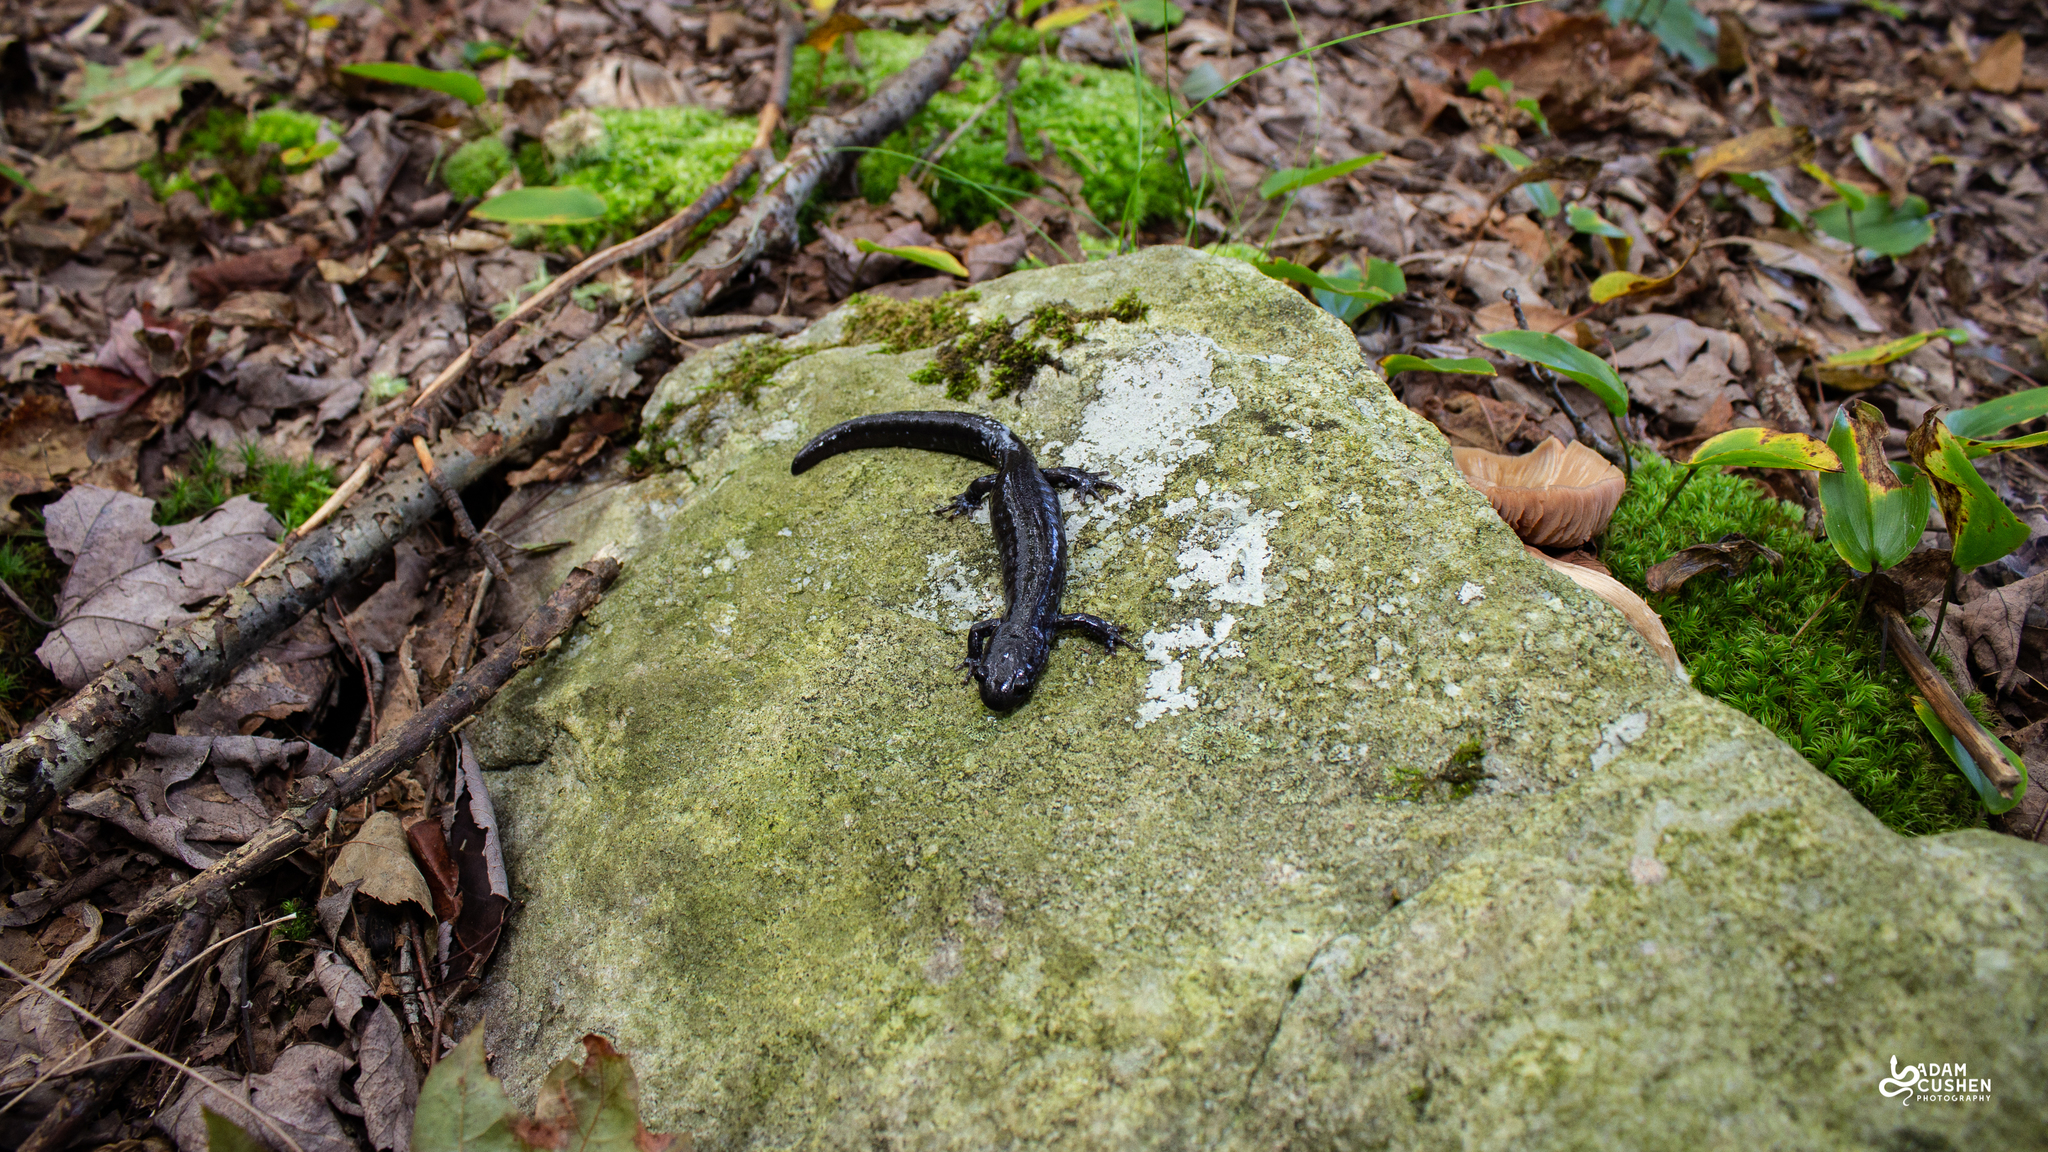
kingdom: Animalia
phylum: Chordata
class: Amphibia
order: Caudata
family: Ambystomatidae
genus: Ambystoma
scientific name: Ambystoma laterale
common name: Blue-spotted salamander
